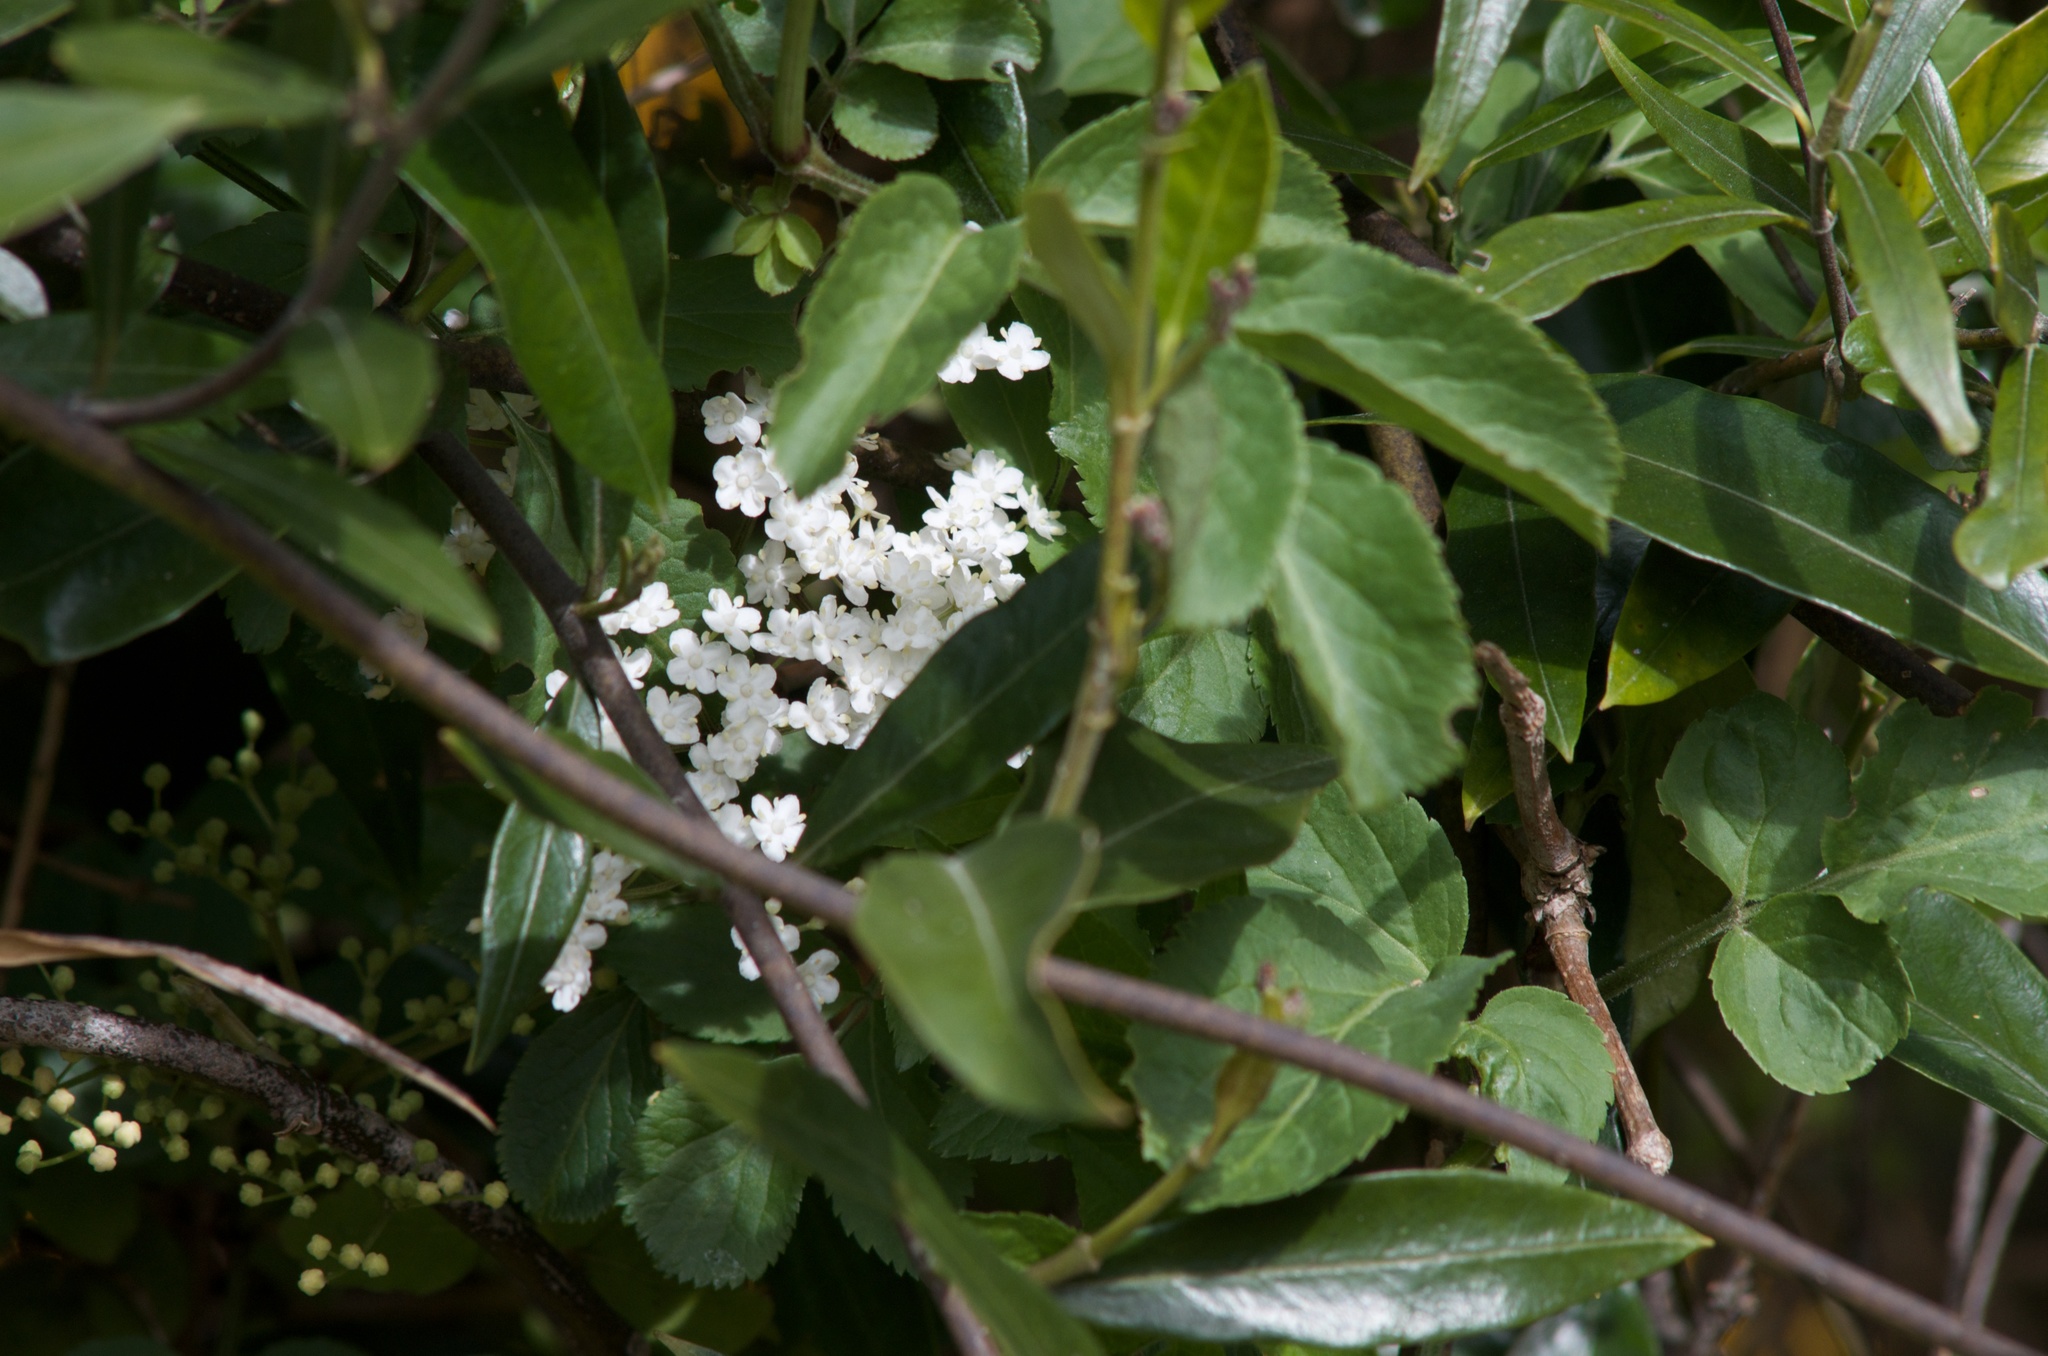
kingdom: Plantae
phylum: Tracheophyta
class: Magnoliopsida
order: Dipsacales
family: Viburnaceae
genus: Sambucus
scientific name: Sambucus nigra
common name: Elder
